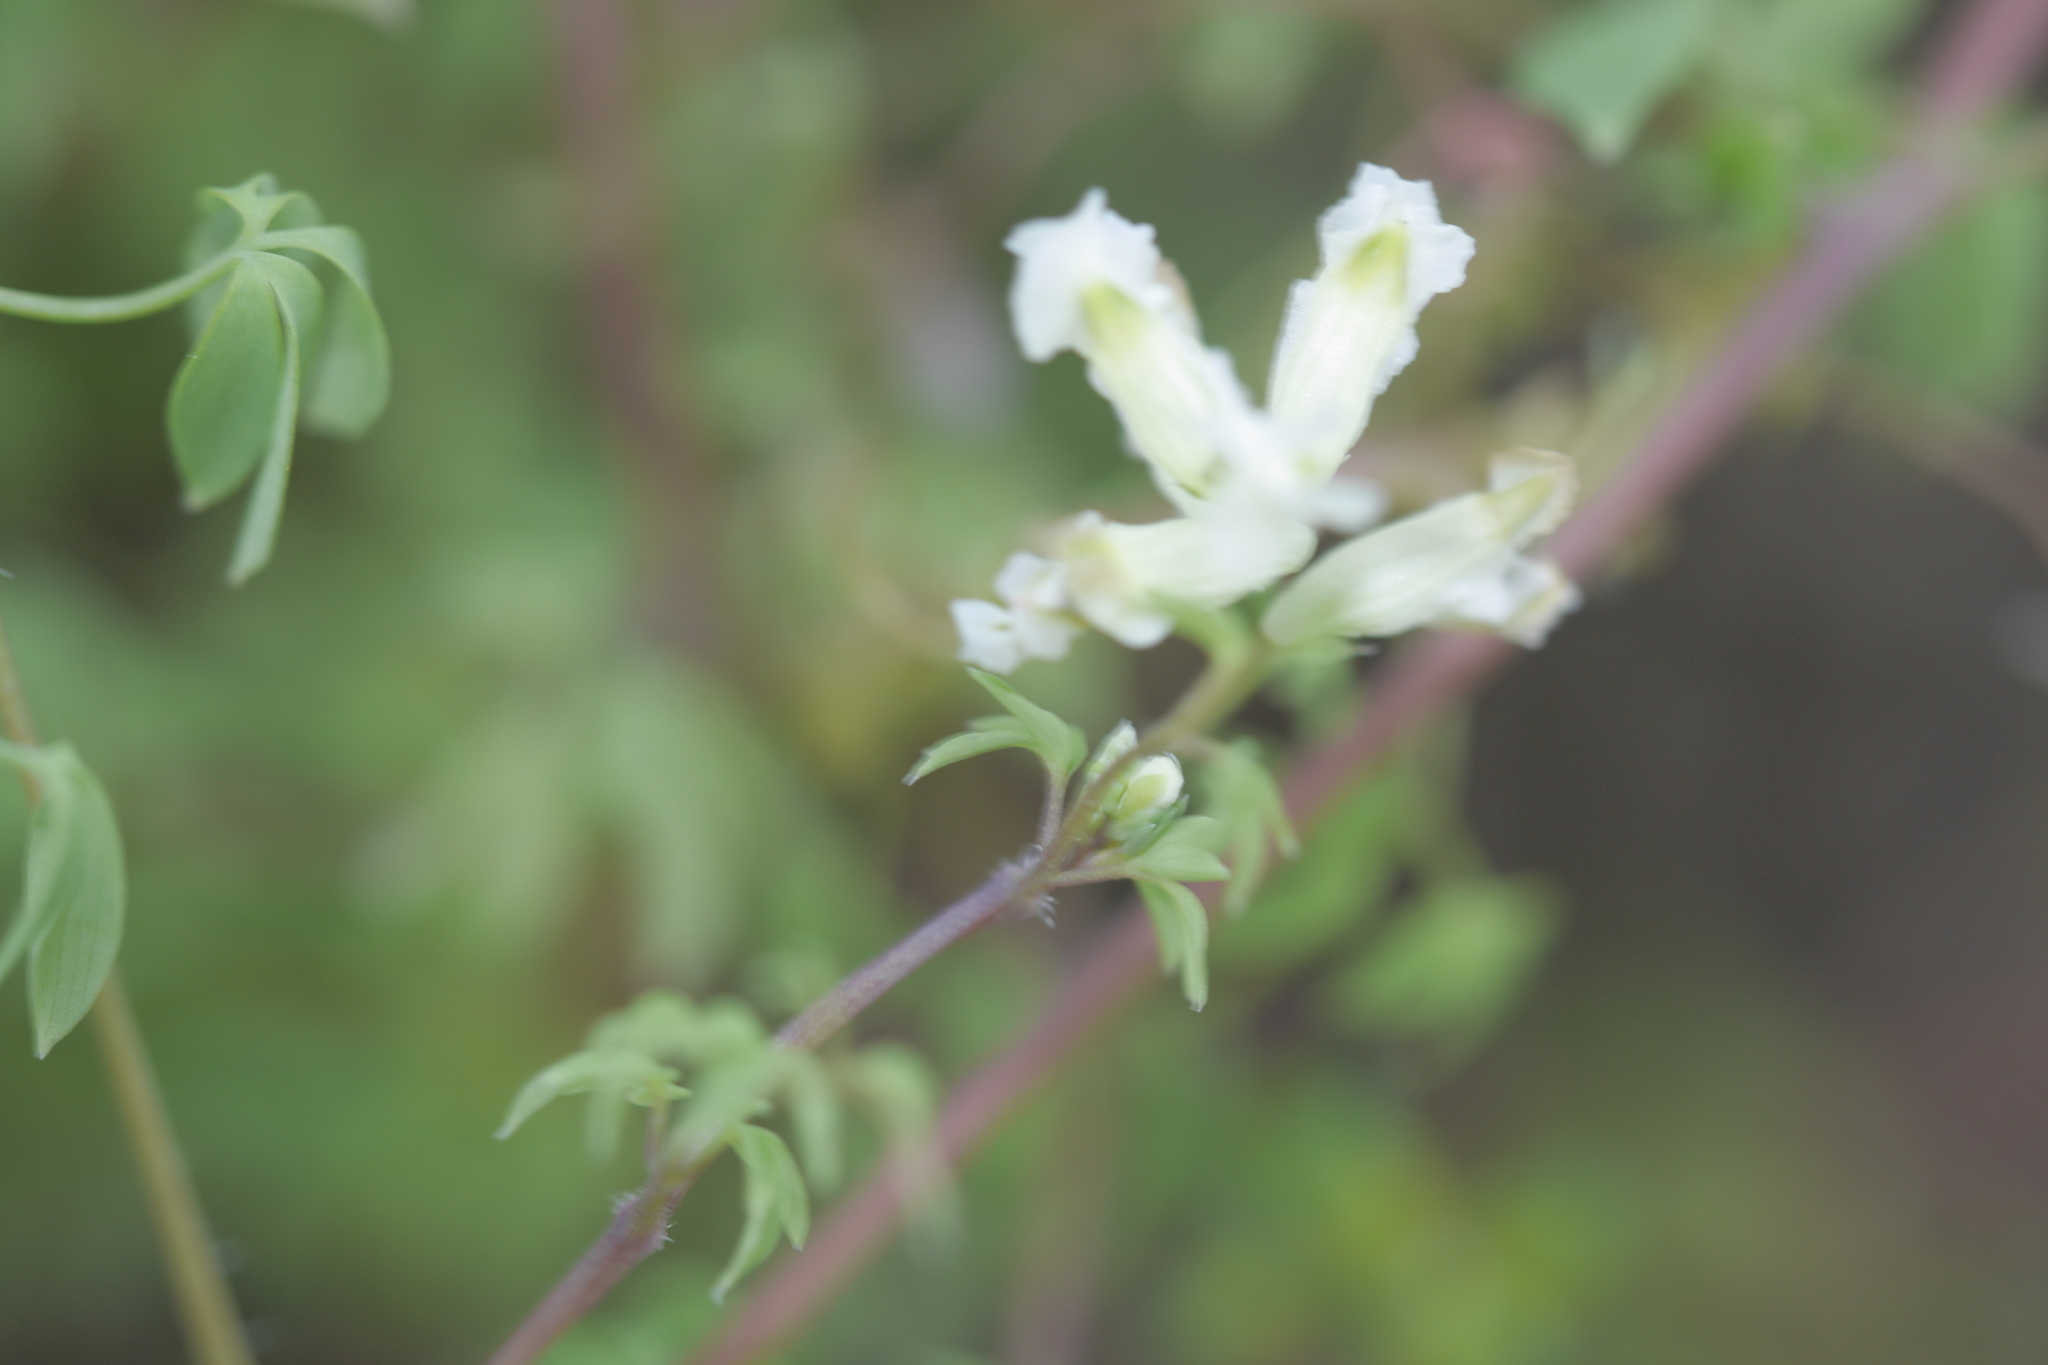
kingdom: Plantae
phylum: Tracheophyta
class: Magnoliopsida
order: Ranunculales
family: Papaveraceae
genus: Ceratocapnos
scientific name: Ceratocapnos claviculata
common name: Climbing corydalis
